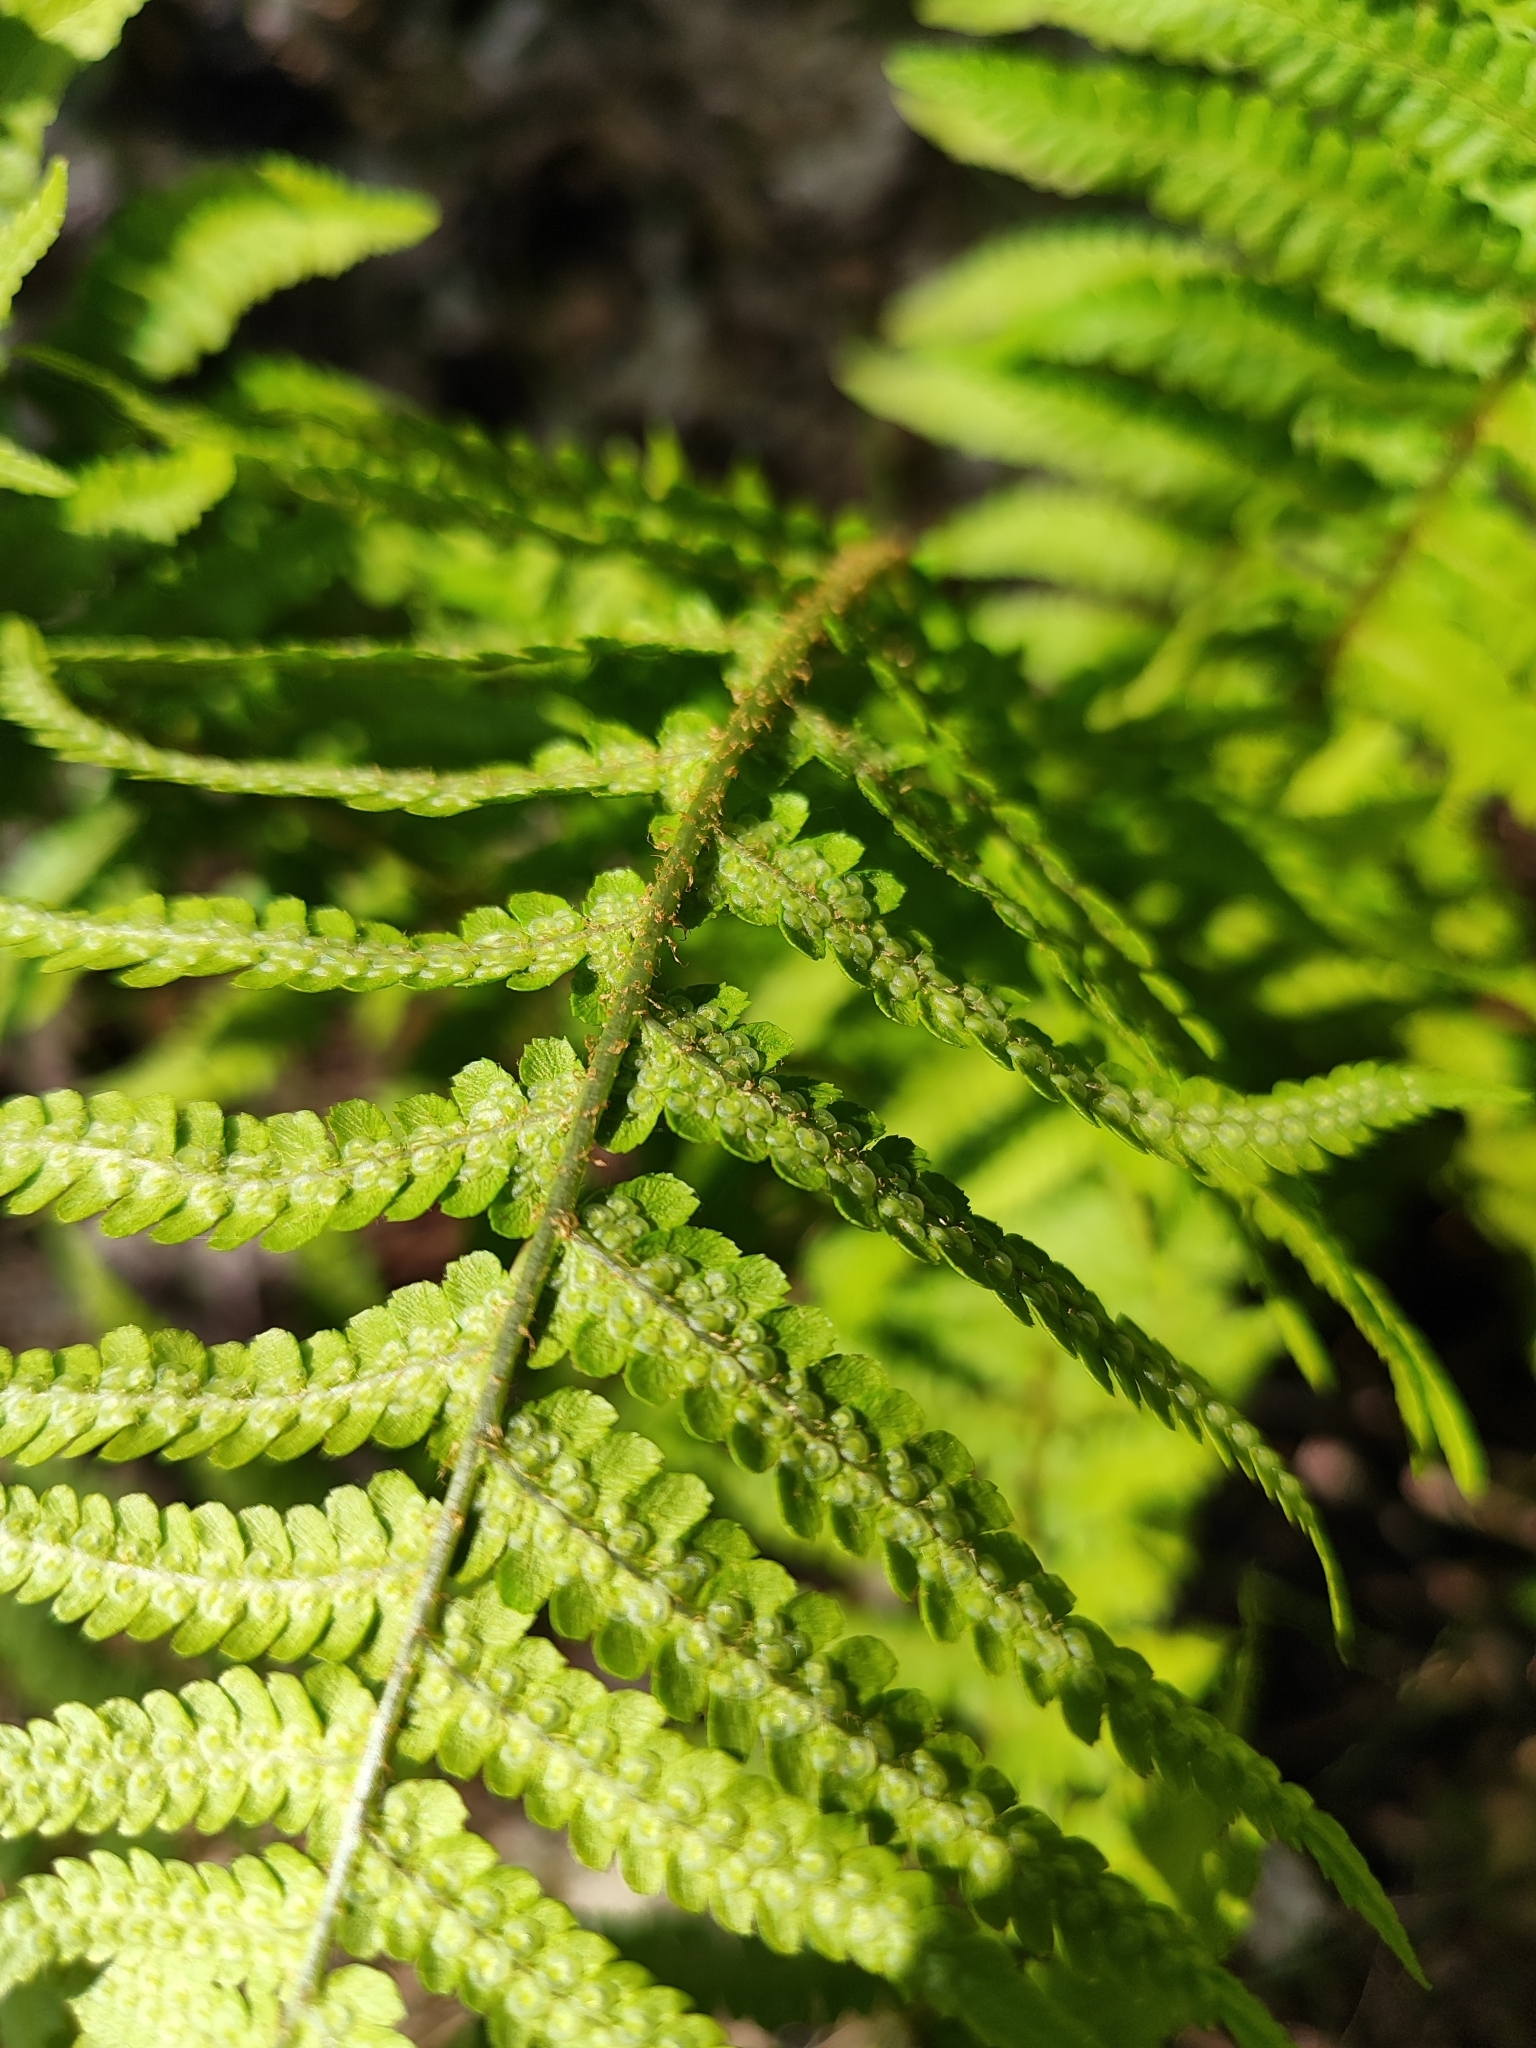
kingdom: Plantae
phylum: Tracheophyta
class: Polypodiopsida
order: Polypodiales
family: Dryopteridaceae
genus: Dryopteris
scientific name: Dryopteris filix-mas
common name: Male fern
